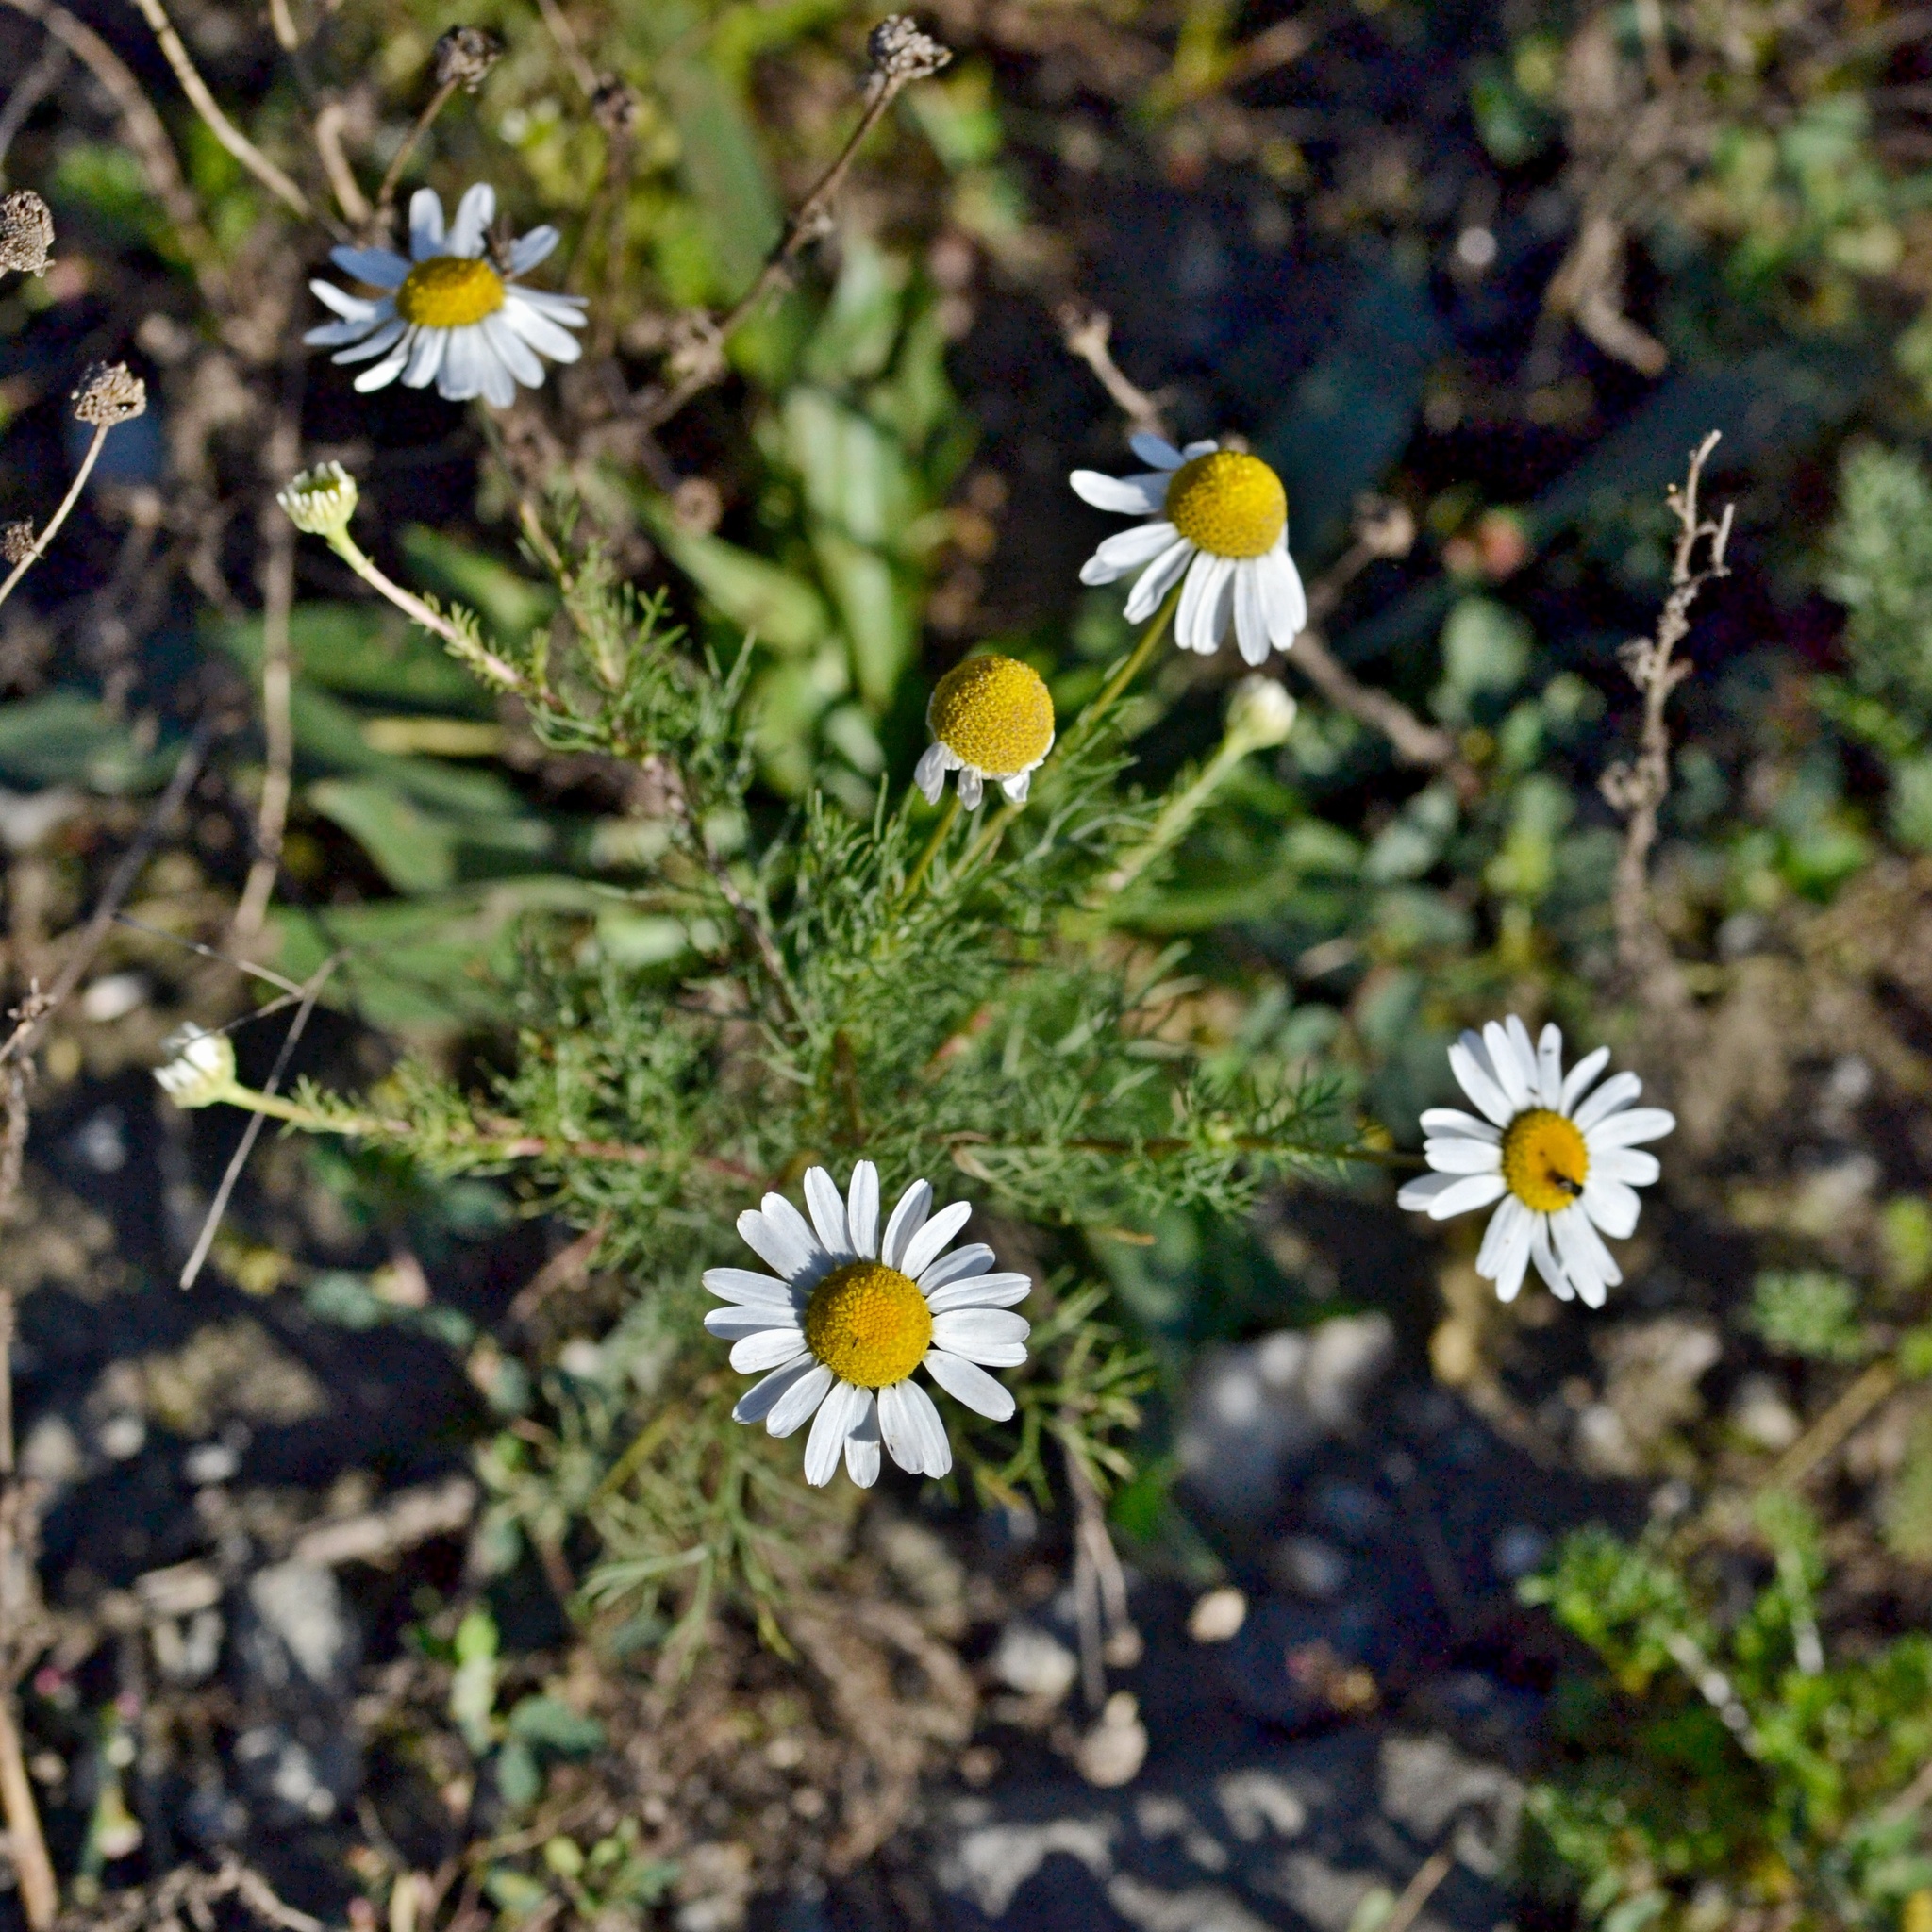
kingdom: Plantae
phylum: Tracheophyta
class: Magnoliopsida
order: Asterales
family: Asteraceae
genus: Tripleurospermum
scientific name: Tripleurospermum inodorum
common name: Scentless mayweed
